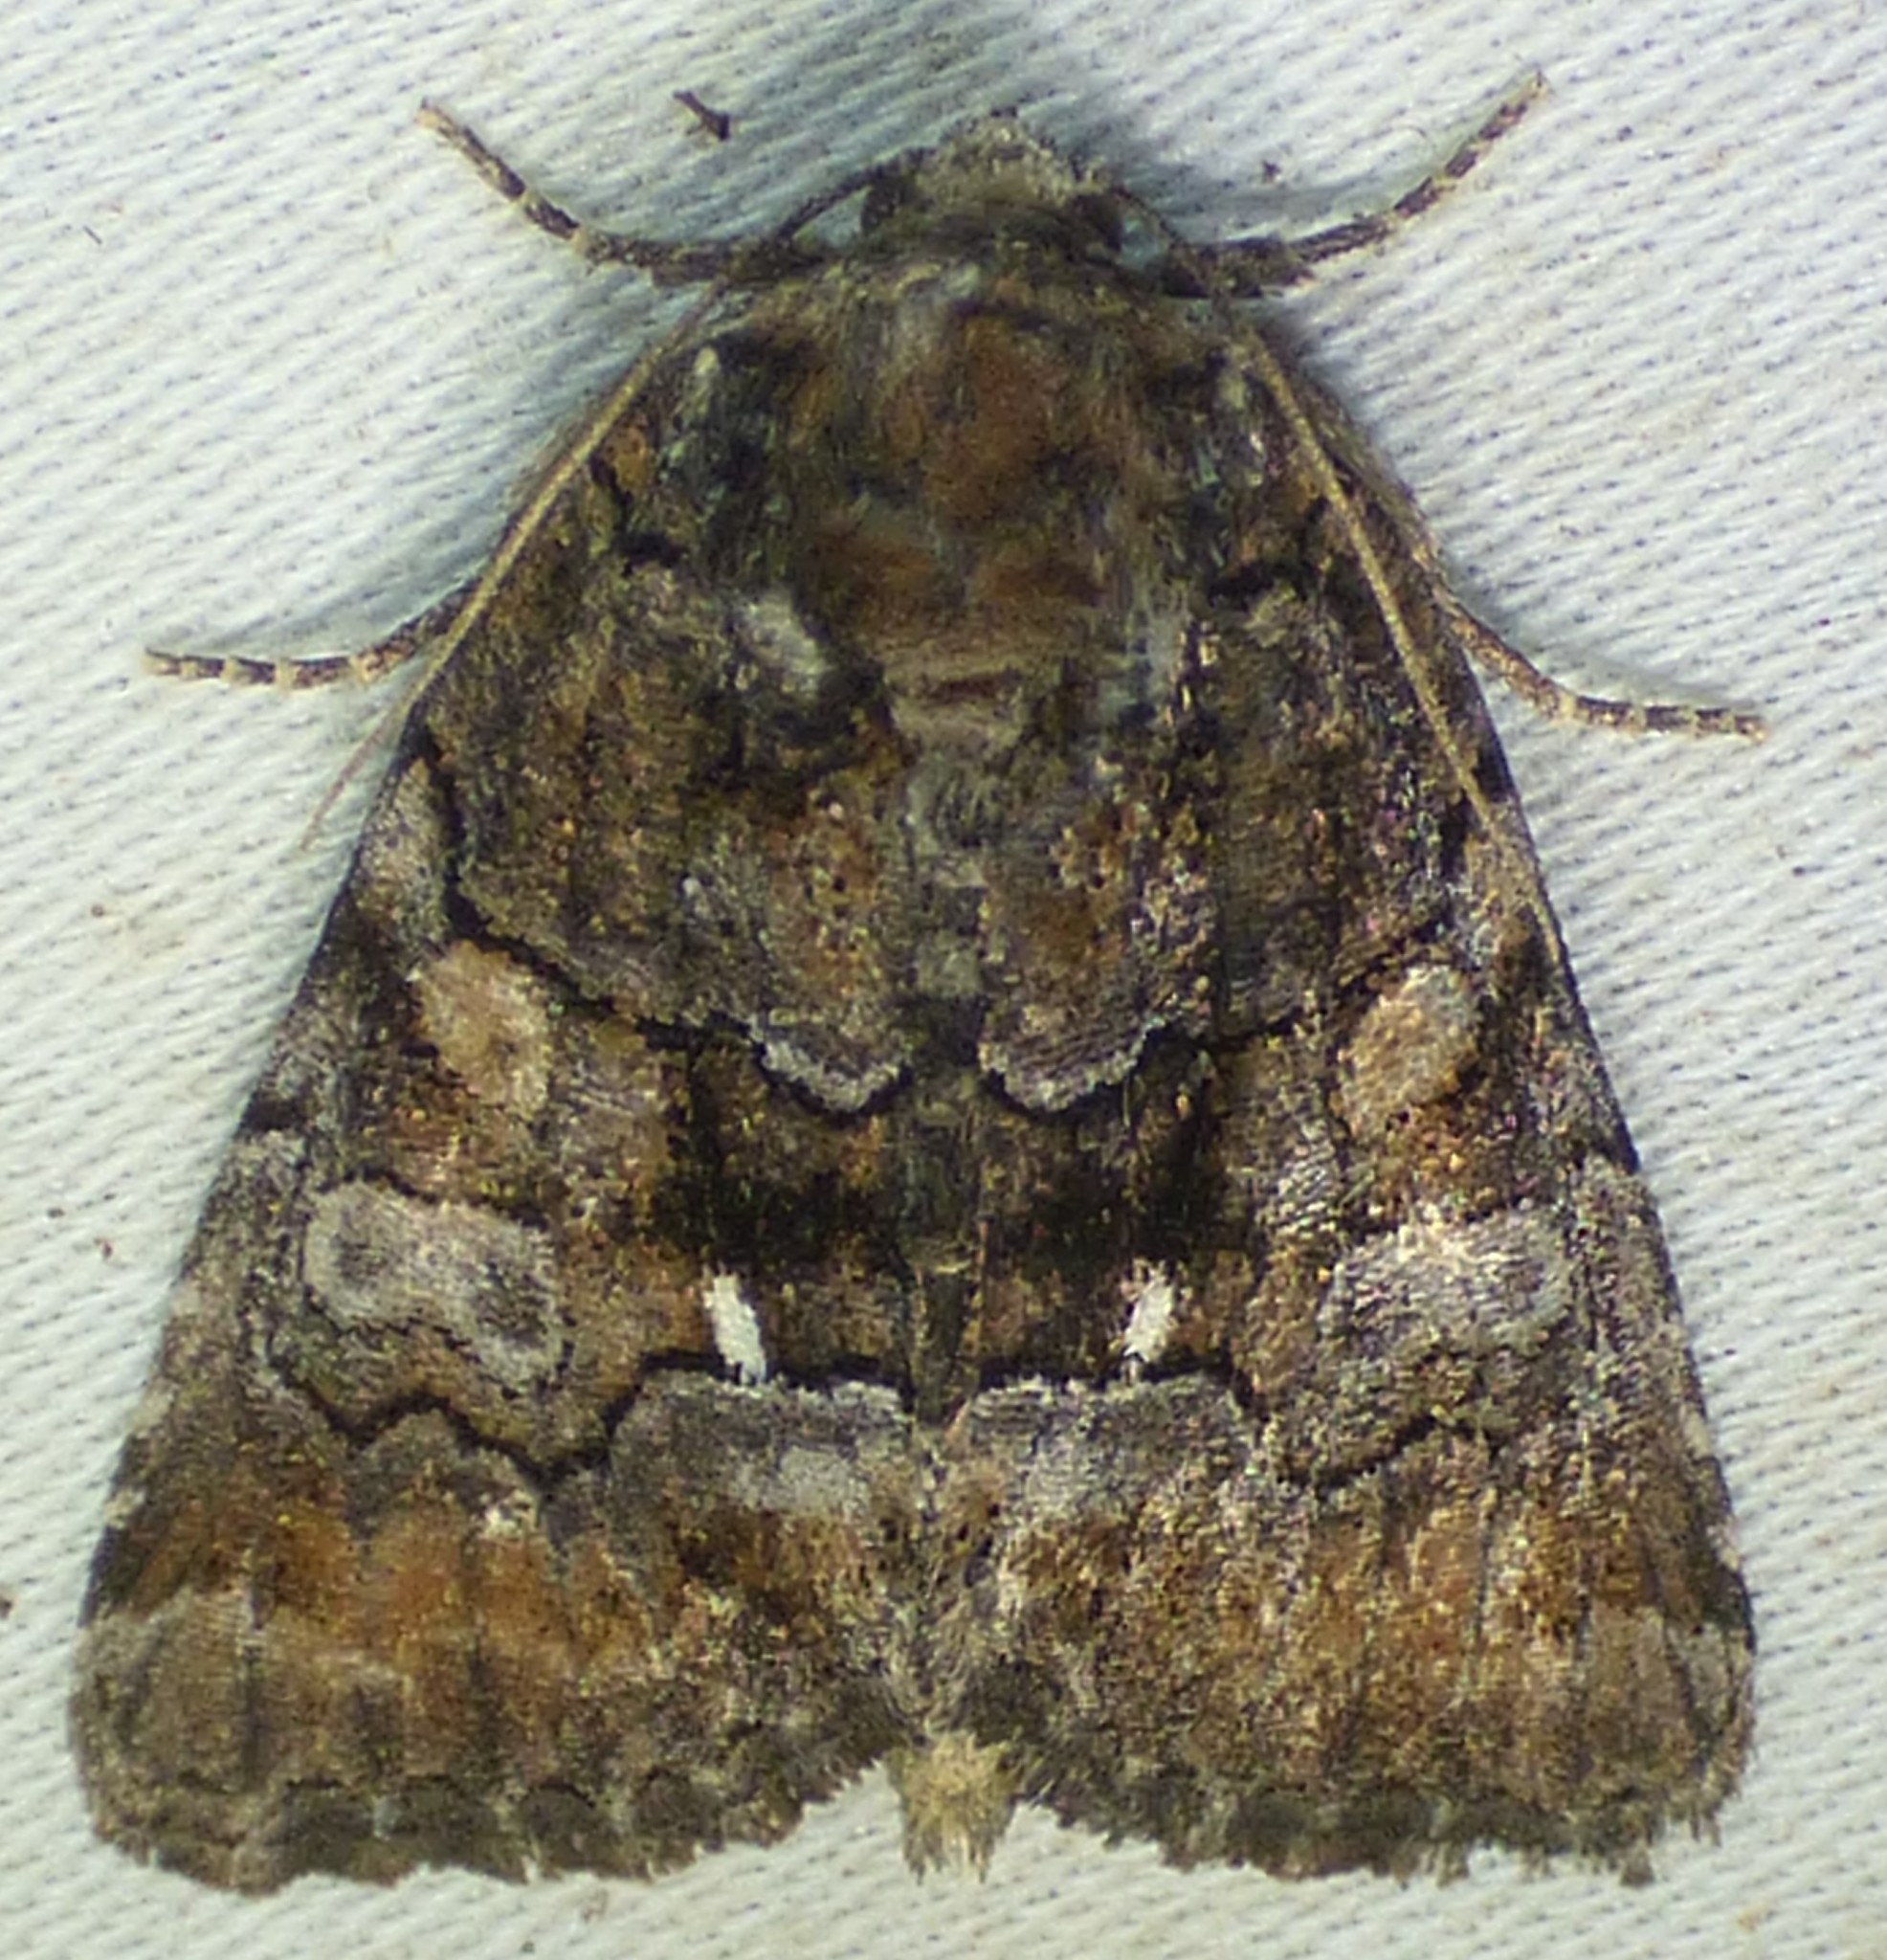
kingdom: Animalia
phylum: Arthropoda
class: Insecta
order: Lepidoptera
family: Noctuidae
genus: Chytonix
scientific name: Chytonix sensilis
